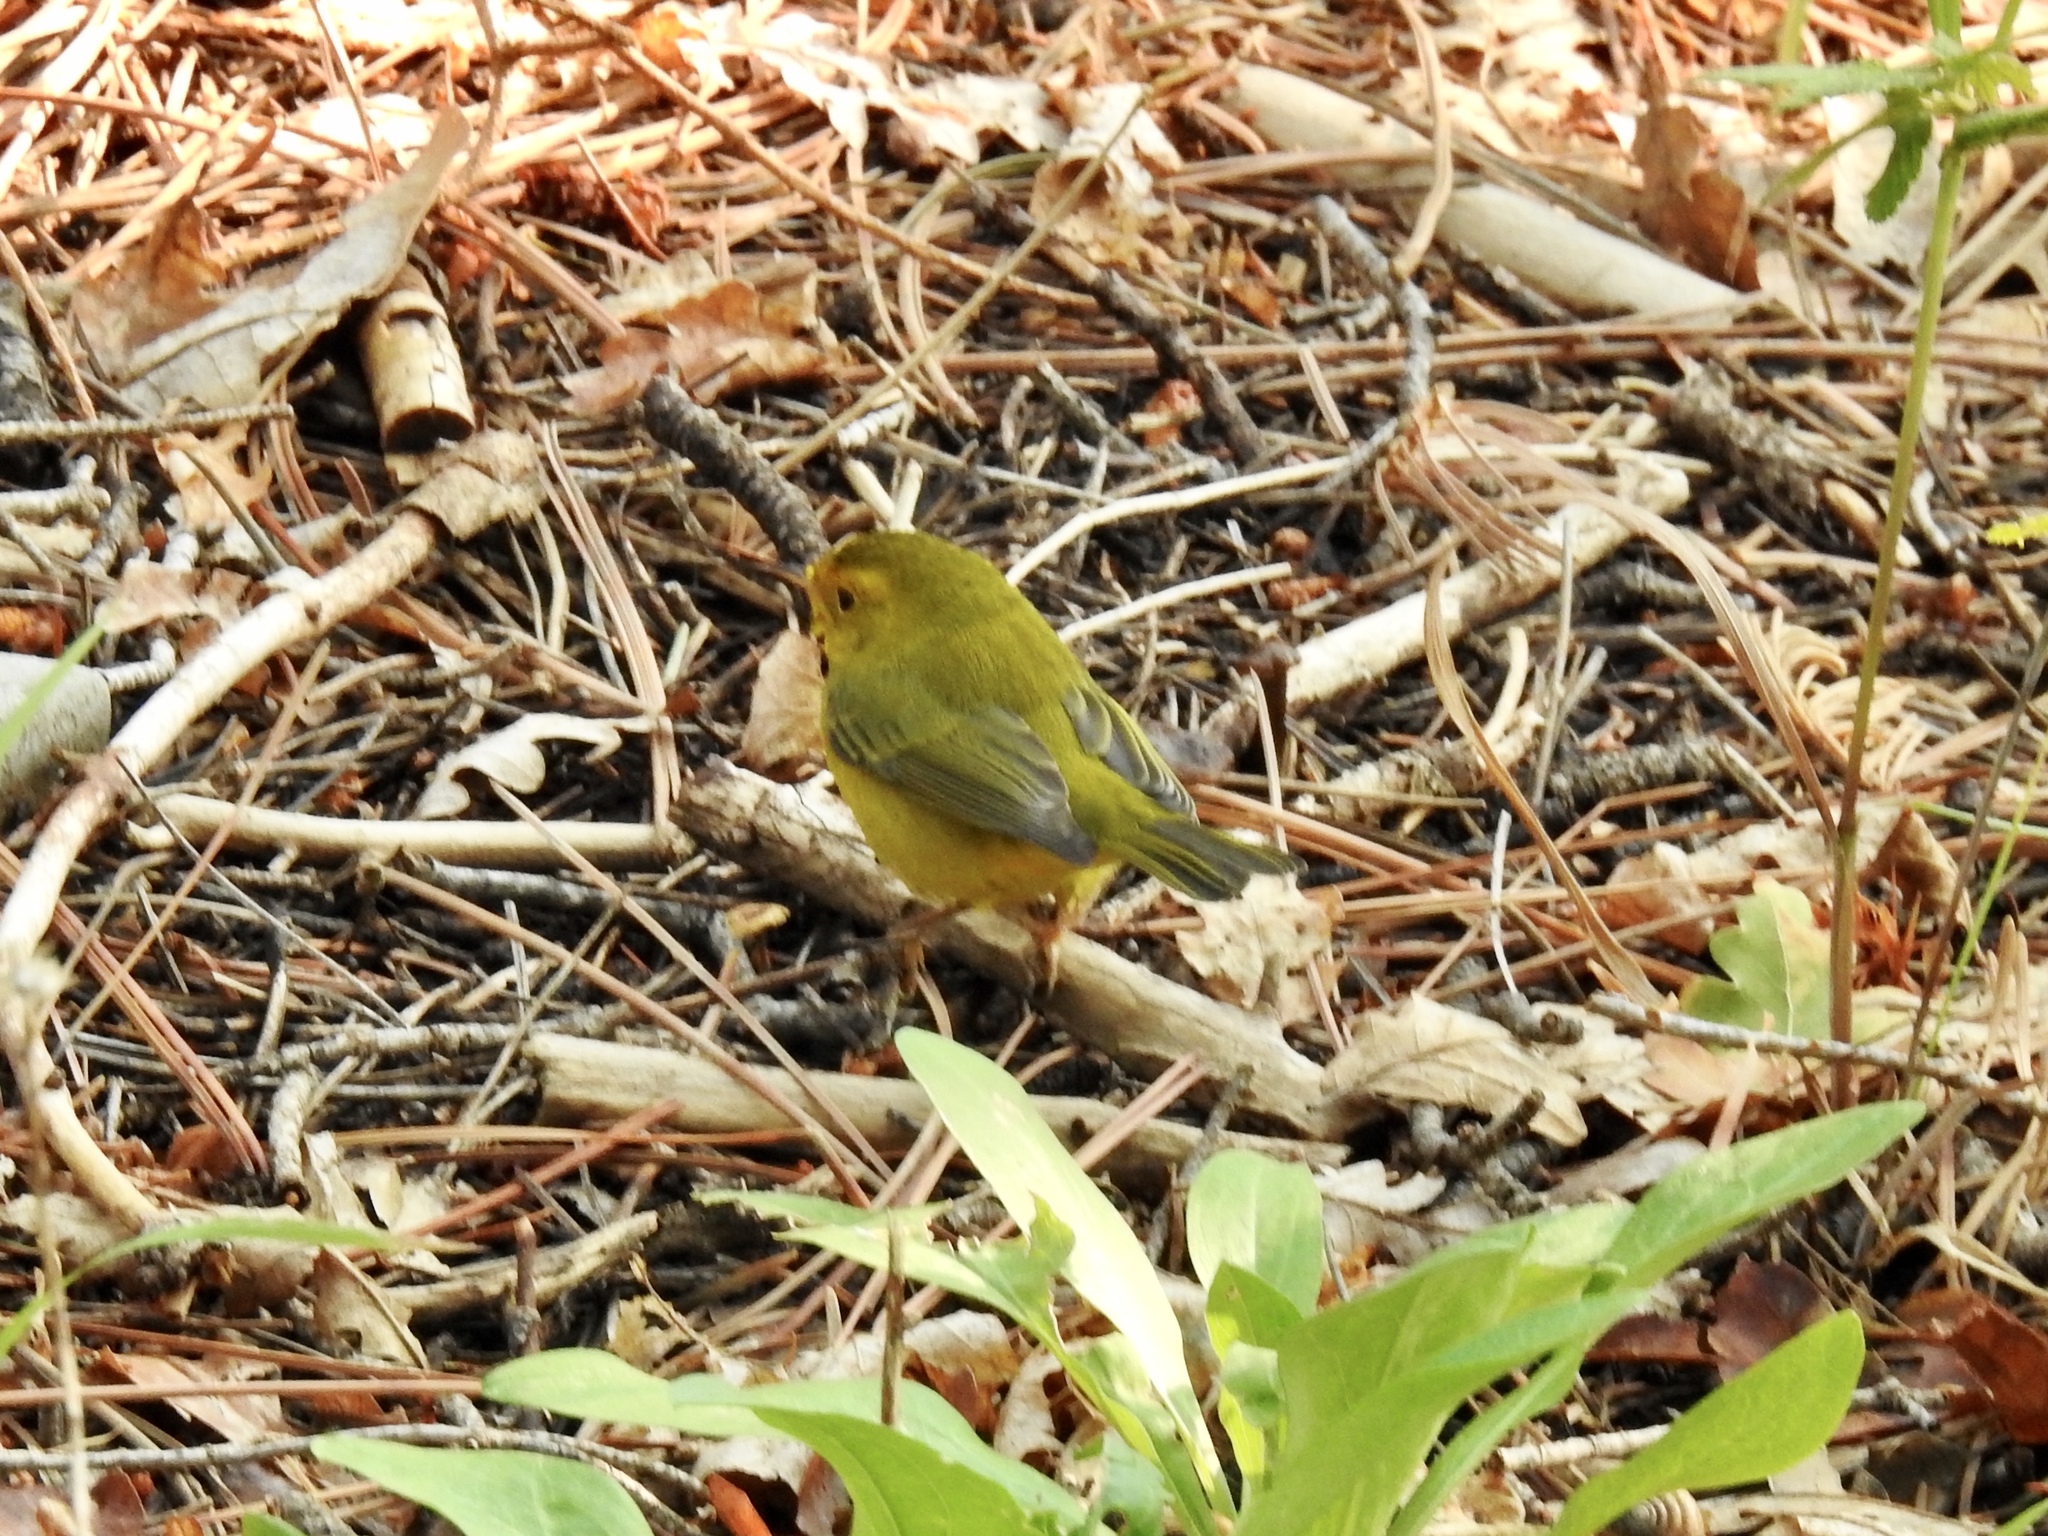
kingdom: Animalia
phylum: Chordata
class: Aves
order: Passeriformes
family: Parulidae
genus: Cardellina
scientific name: Cardellina pusilla
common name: Wilson's warbler
